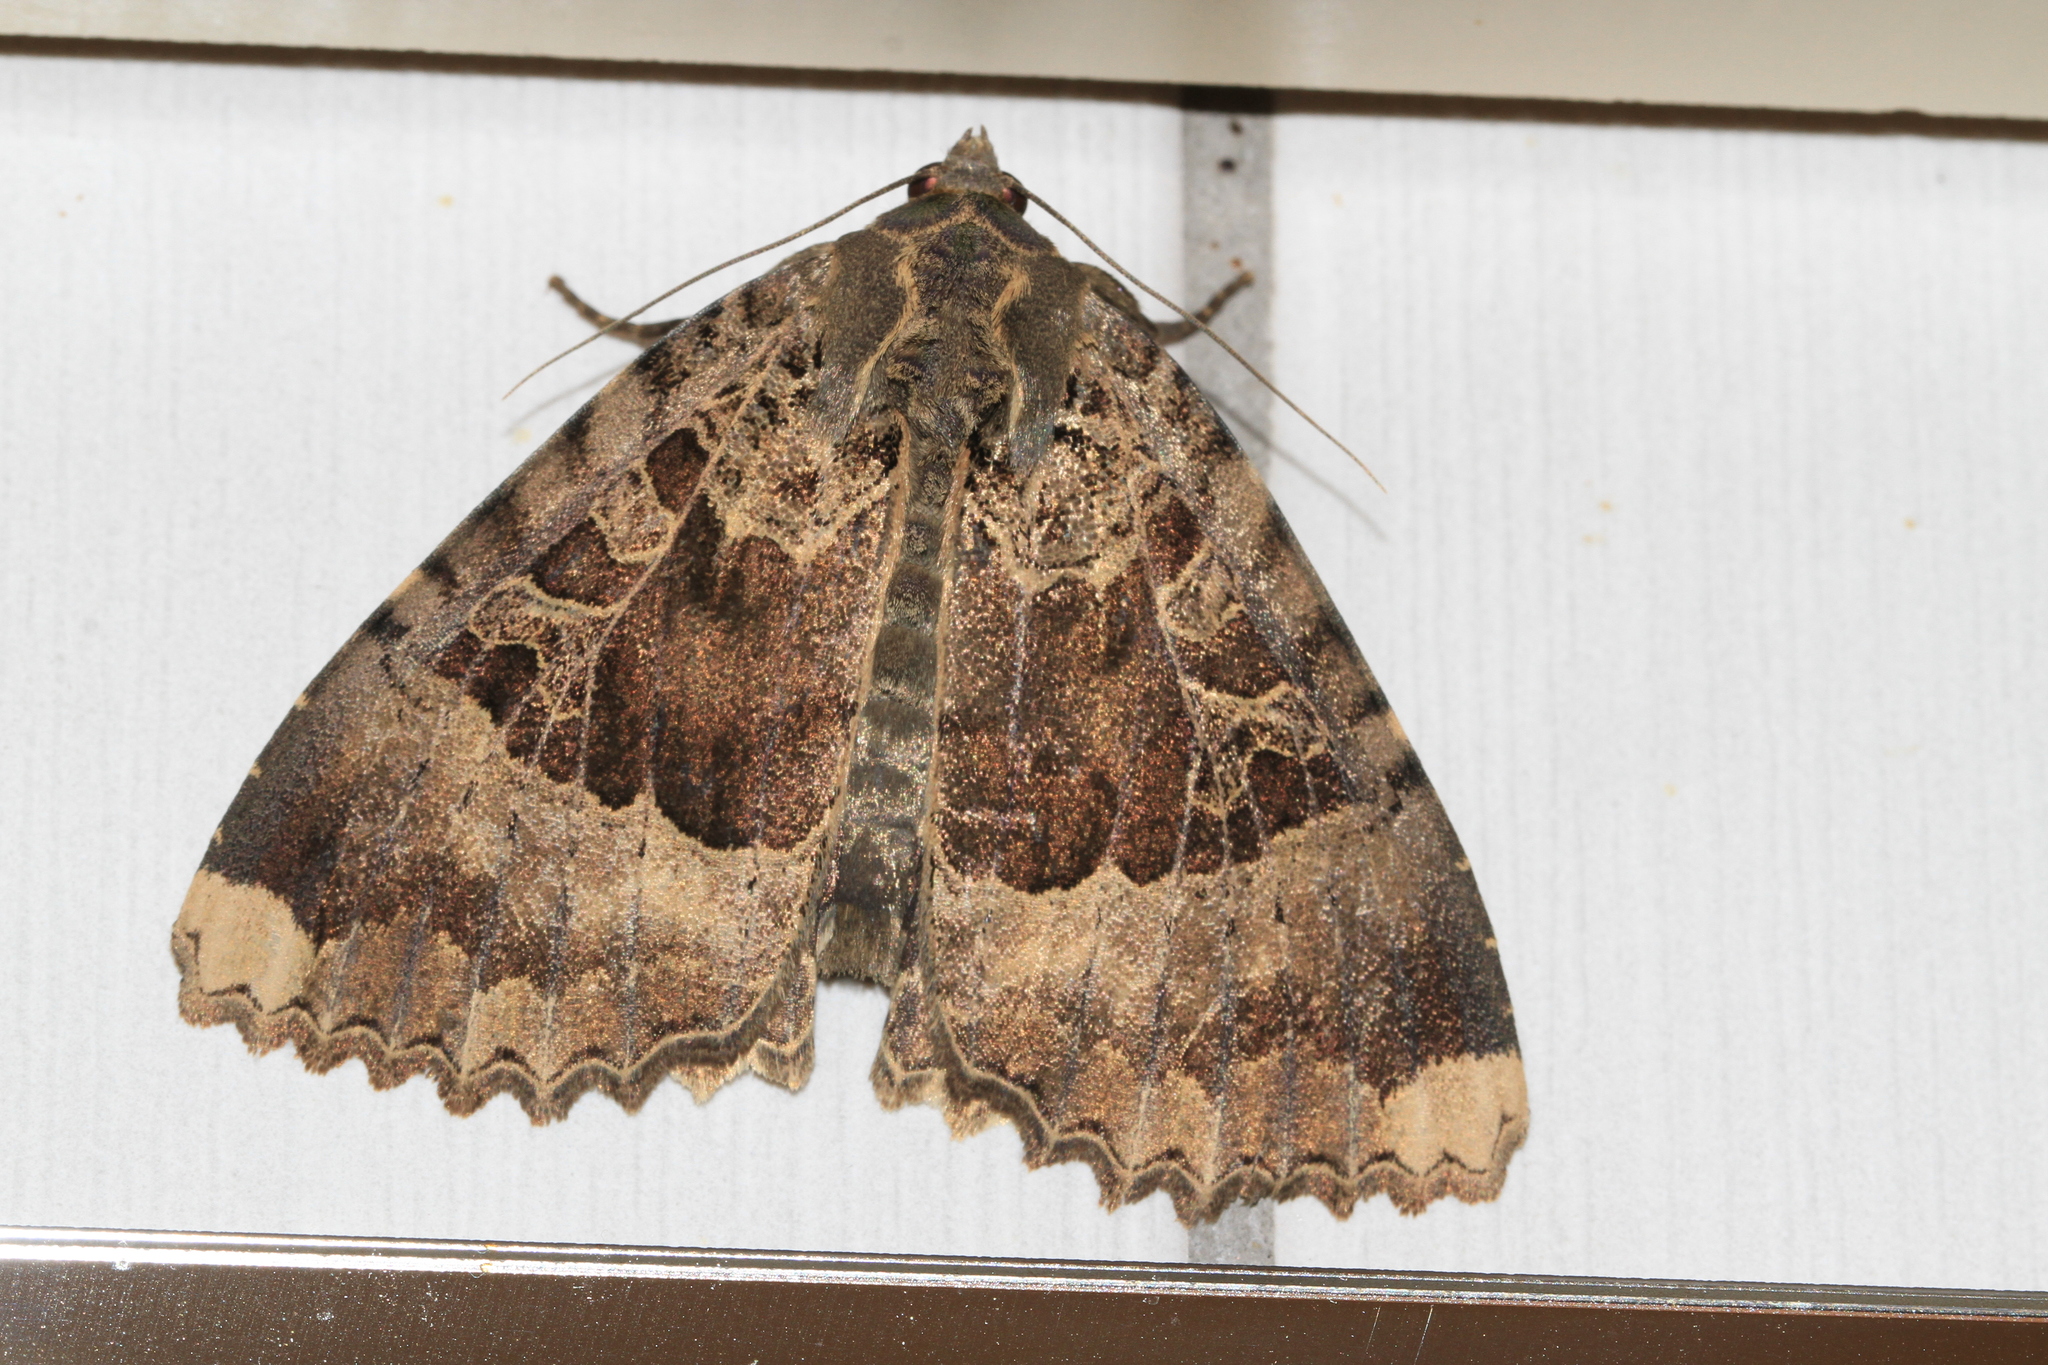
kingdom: Animalia
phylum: Arthropoda
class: Insecta
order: Lepidoptera
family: Noctuidae
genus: Mormo
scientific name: Mormo maura
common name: Old lady
